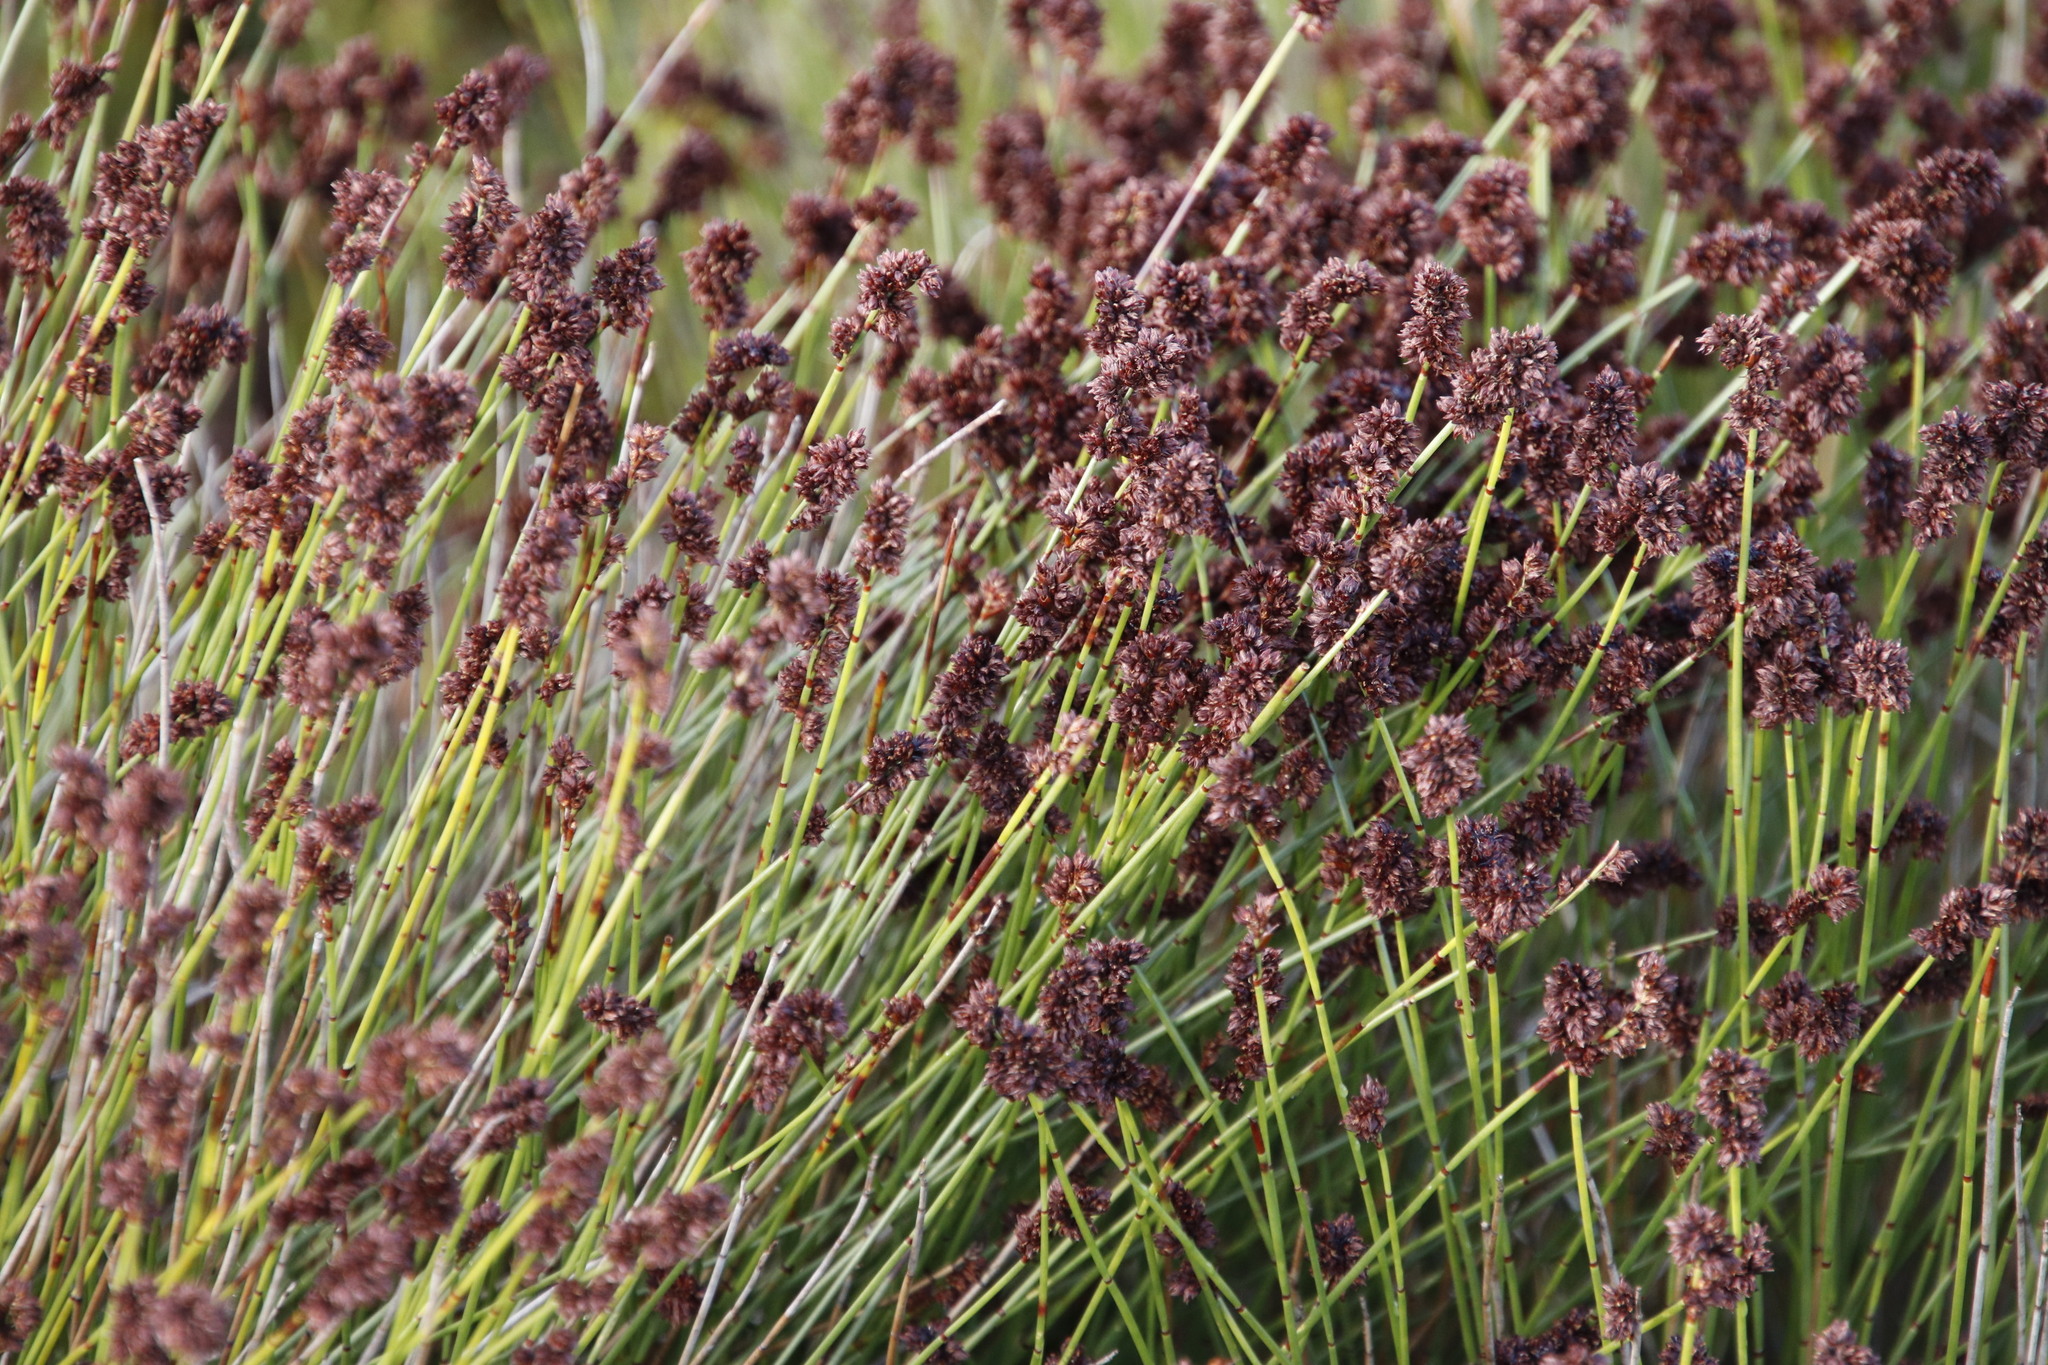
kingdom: Plantae
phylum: Tracheophyta
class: Liliopsida
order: Poales
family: Restionaceae
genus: Elegia
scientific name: Elegia nuda
